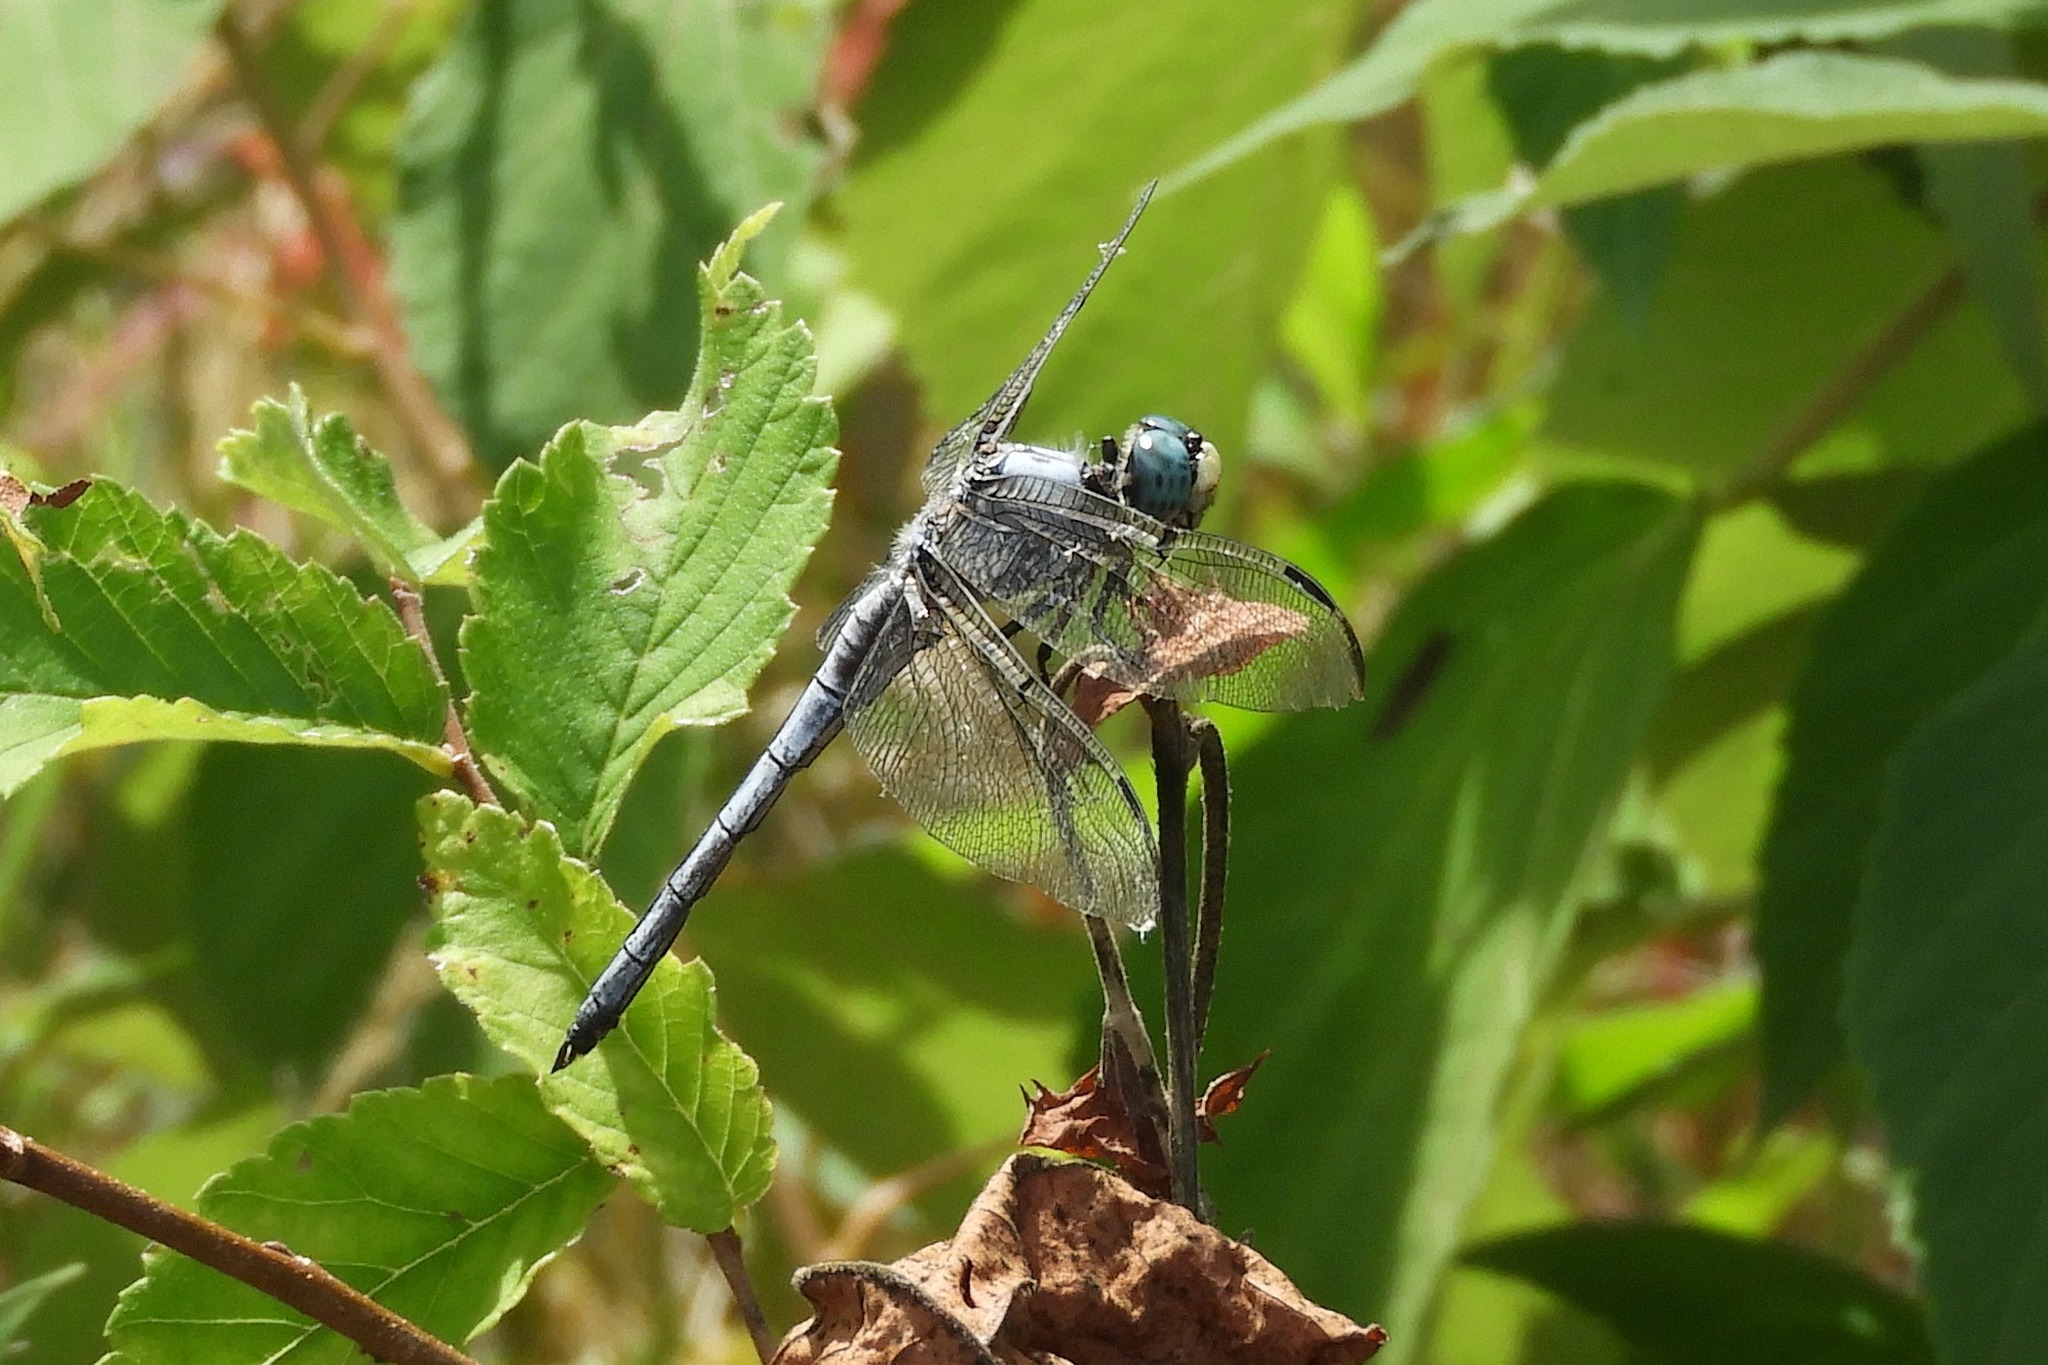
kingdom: Animalia
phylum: Arthropoda
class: Insecta
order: Odonata
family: Libellulidae
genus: Libellula
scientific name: Libellula vibrans
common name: Great blue skimmer
